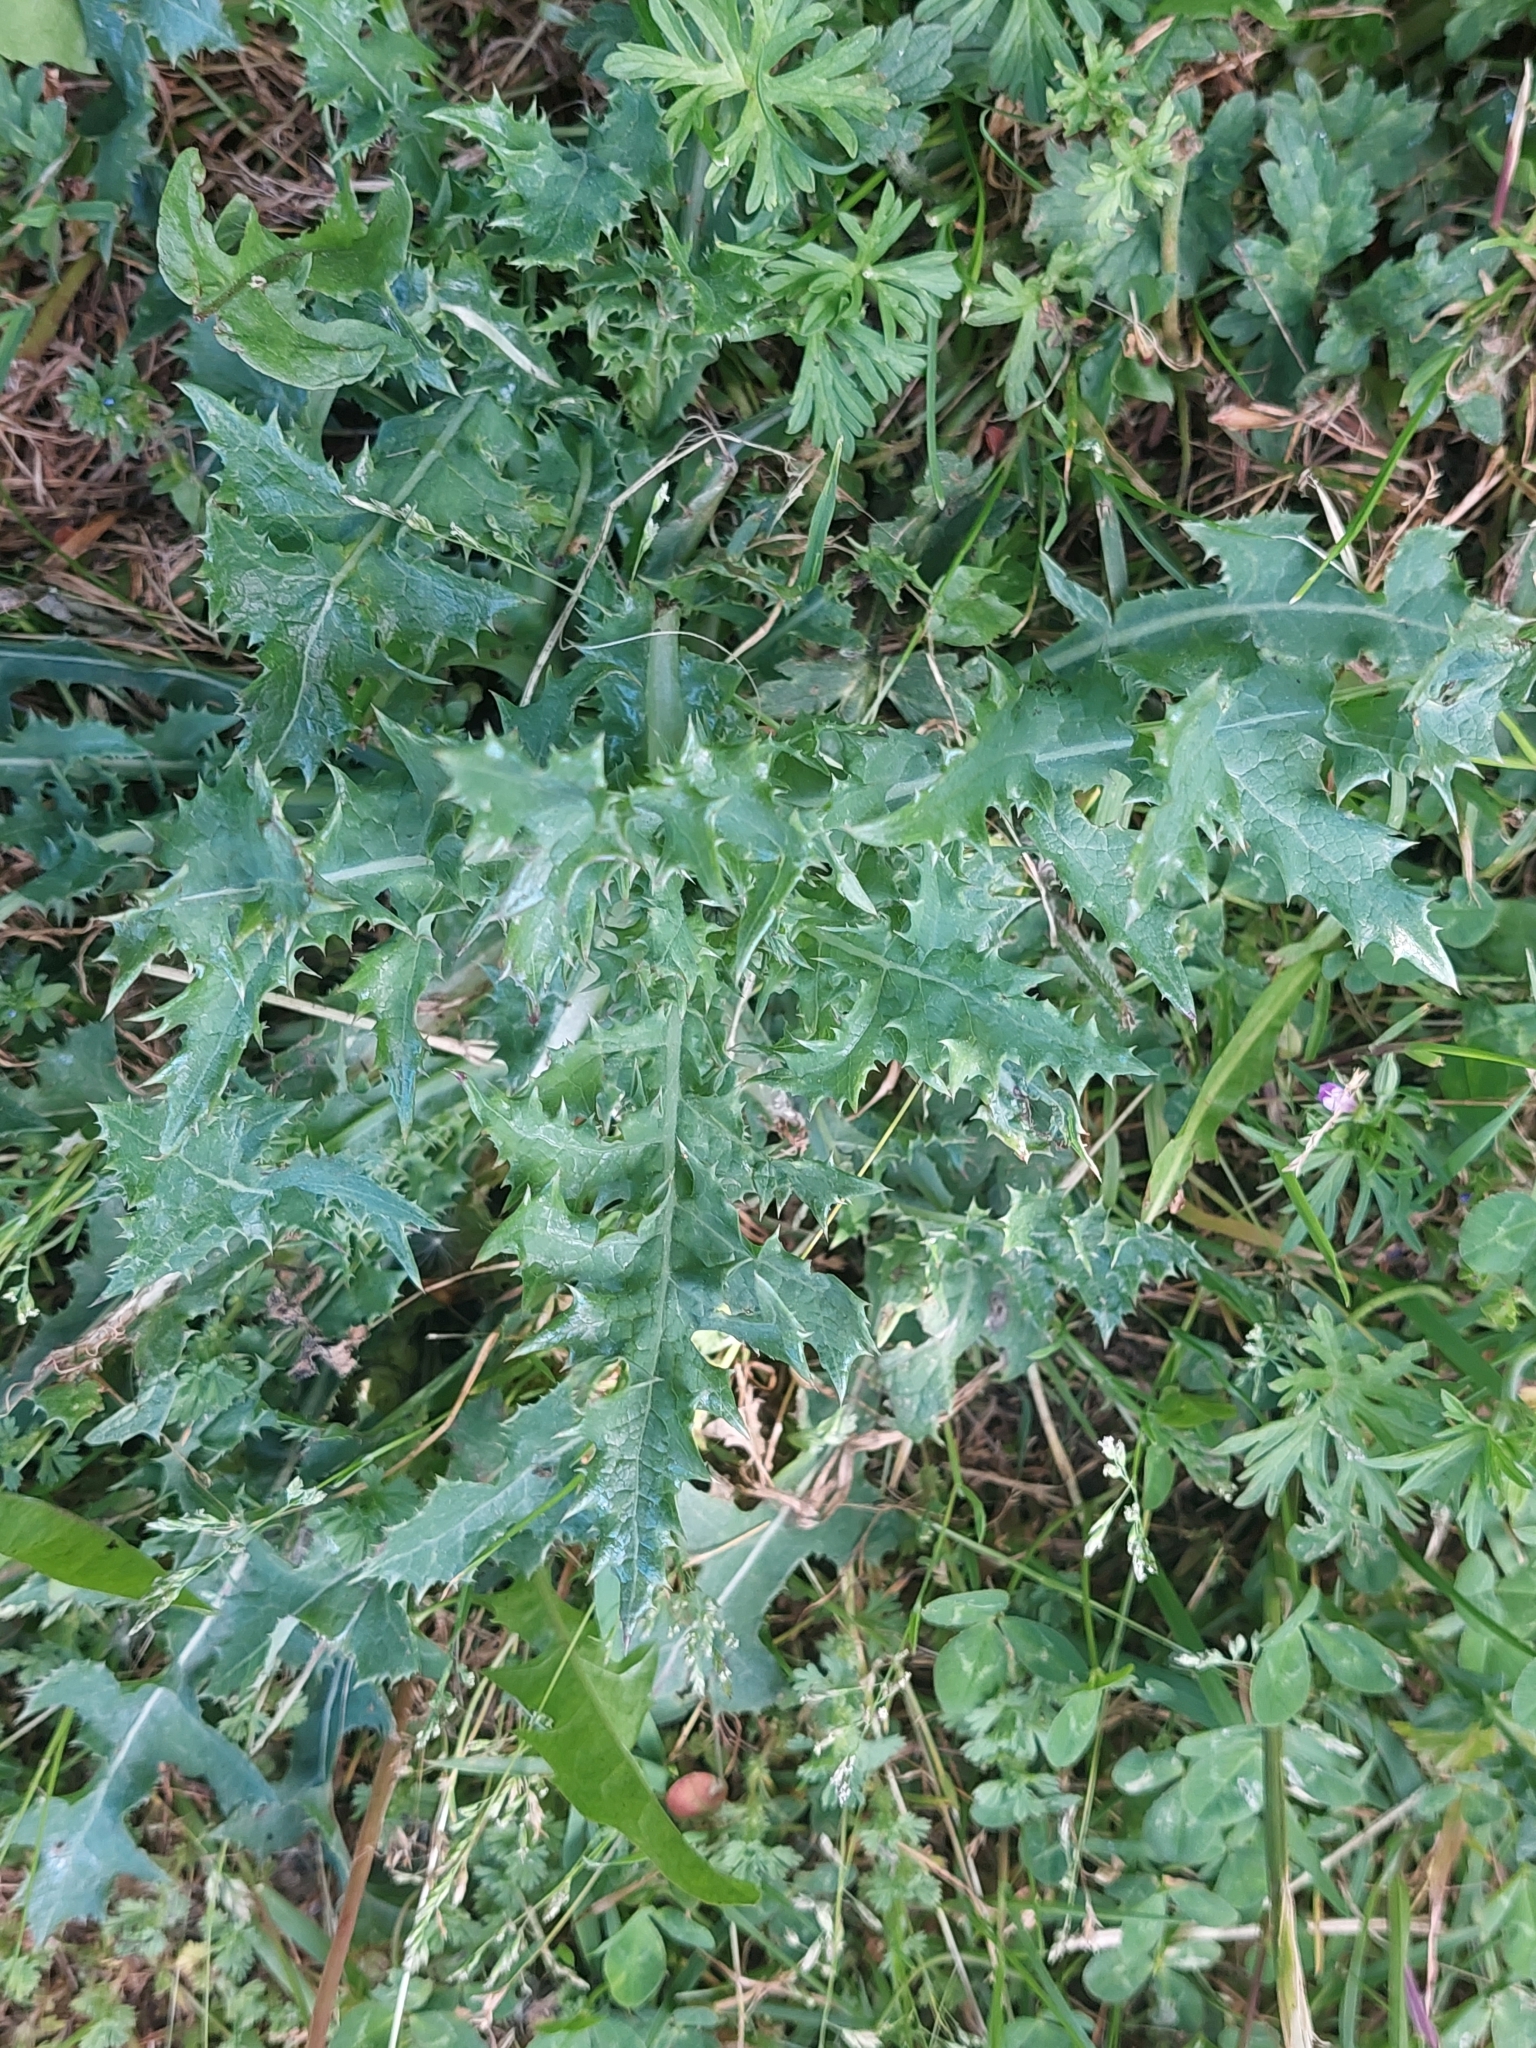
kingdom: Plantae
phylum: Tracheophyta
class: Magnoliopsida
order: Asterales
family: Asteraceae
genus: Cirsium
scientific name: Cirsium arvense
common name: Creeping thistle
